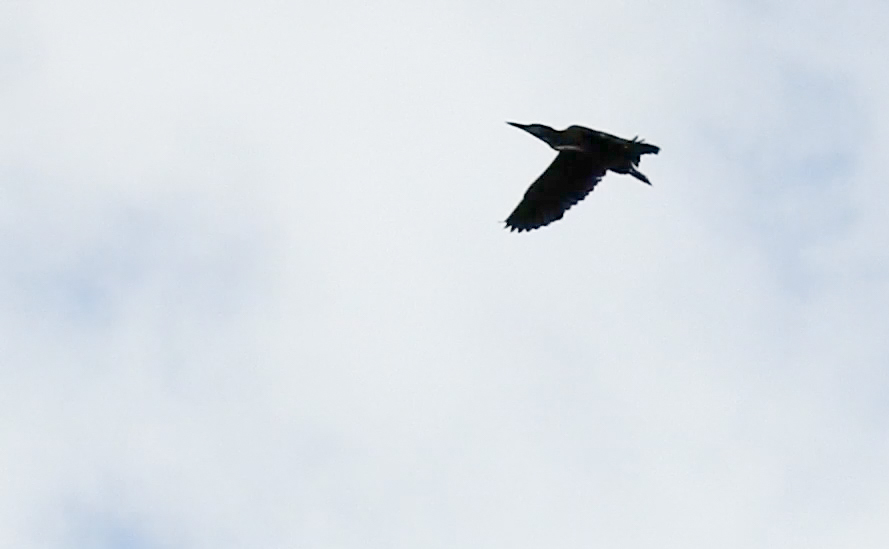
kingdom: Animalia
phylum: Chordata
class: Aves
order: Pelecaniformes
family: Ardeidae
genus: Butorides
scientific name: Butorides virescens
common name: Green heron
